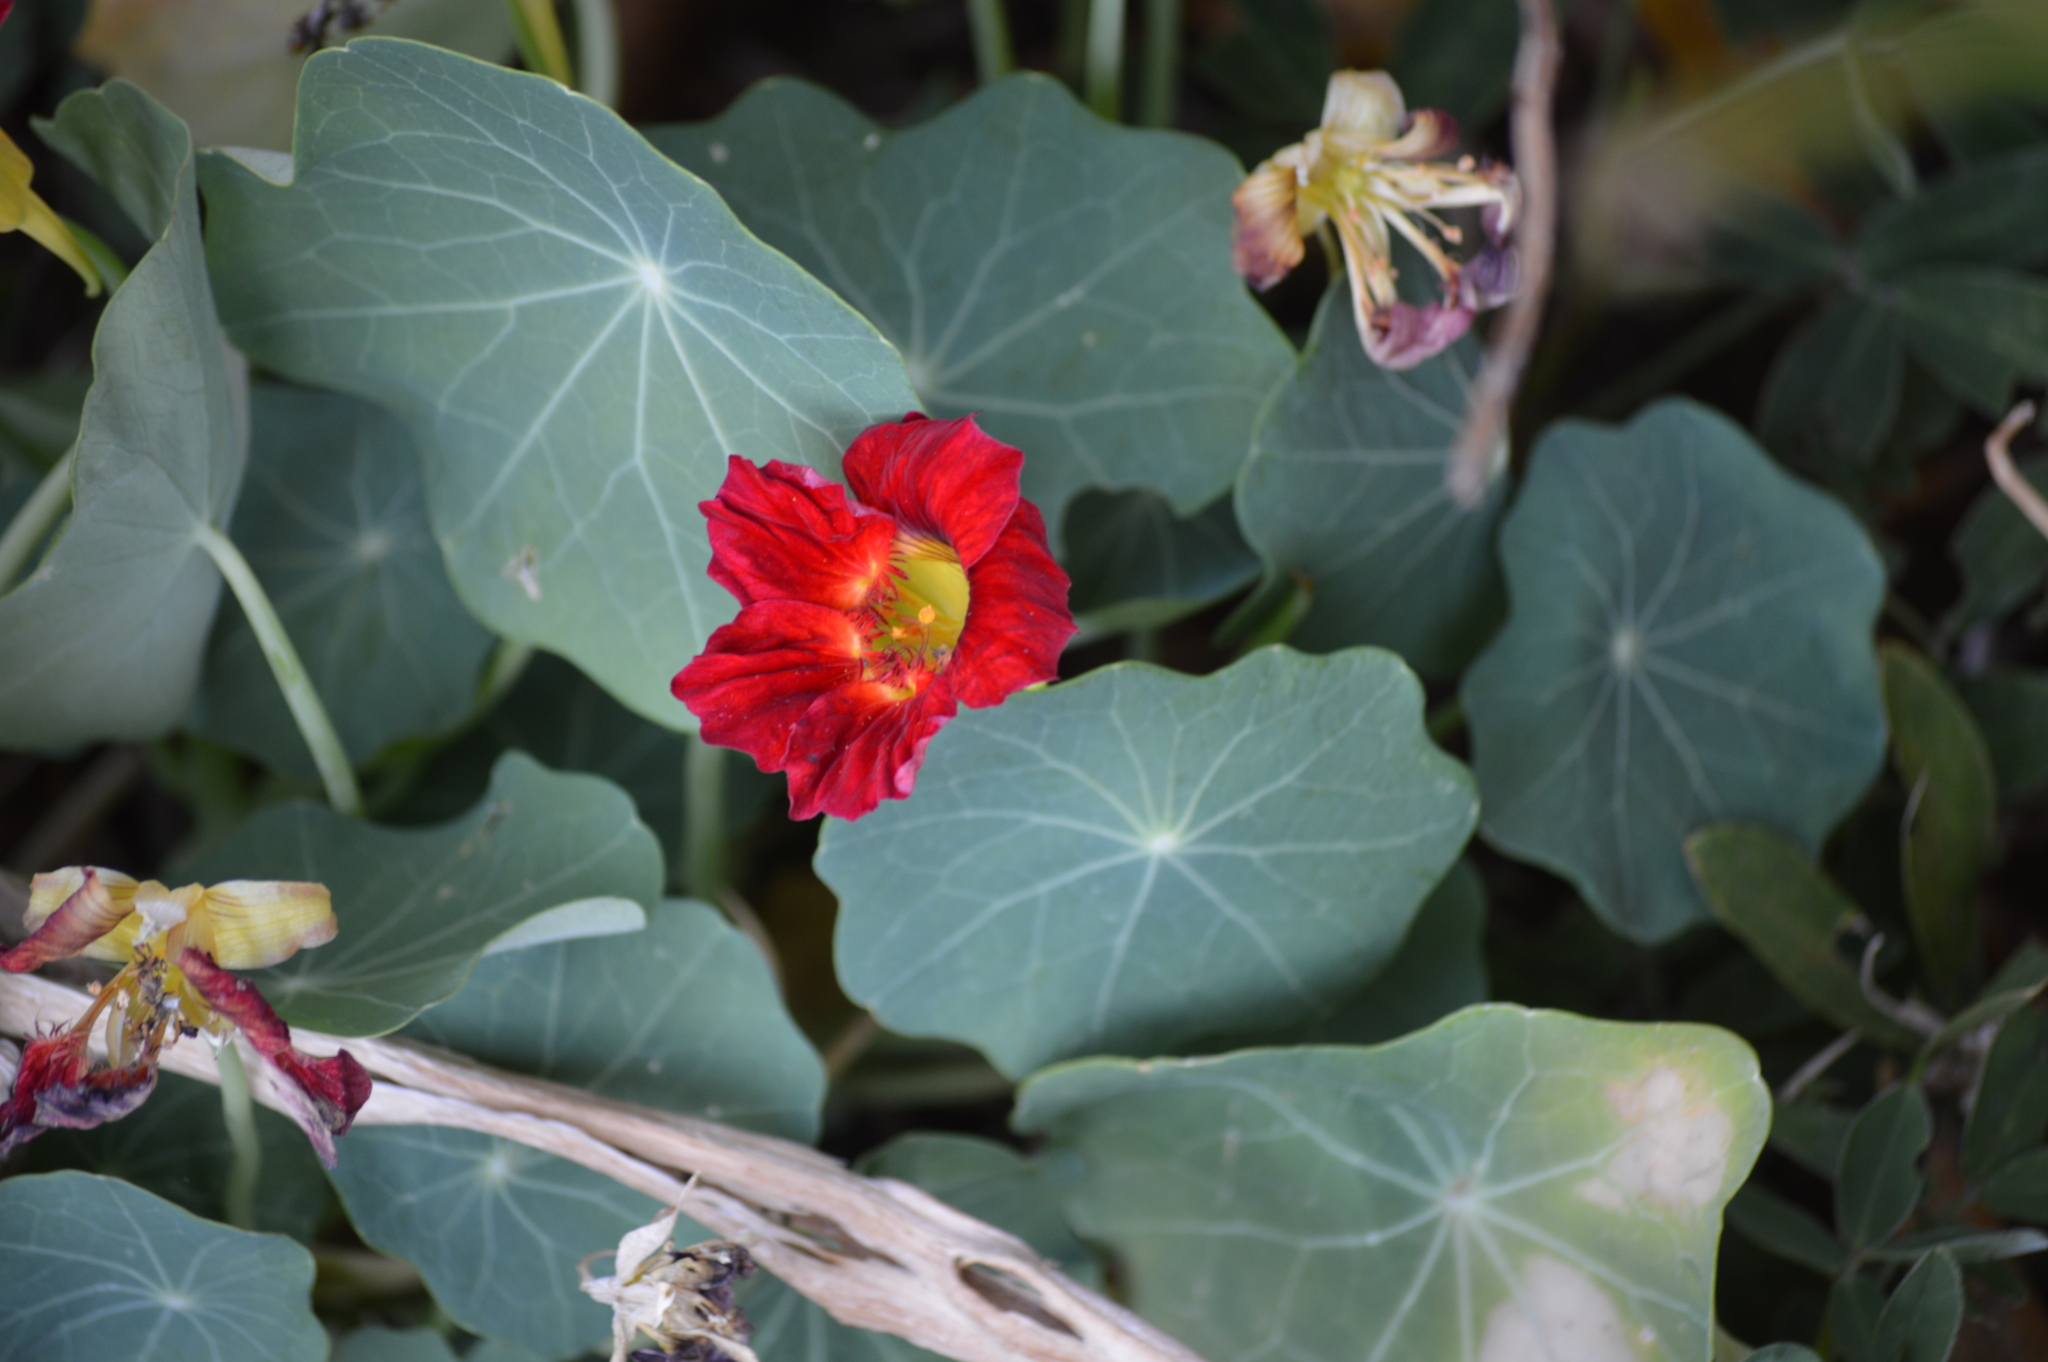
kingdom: Plantae
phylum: Tracheophyta
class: Magnoliopsida
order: Brassicales
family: Tropaeolaceae
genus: Tropaeolum
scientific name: Tropaeolum majus
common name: Nasturtium
